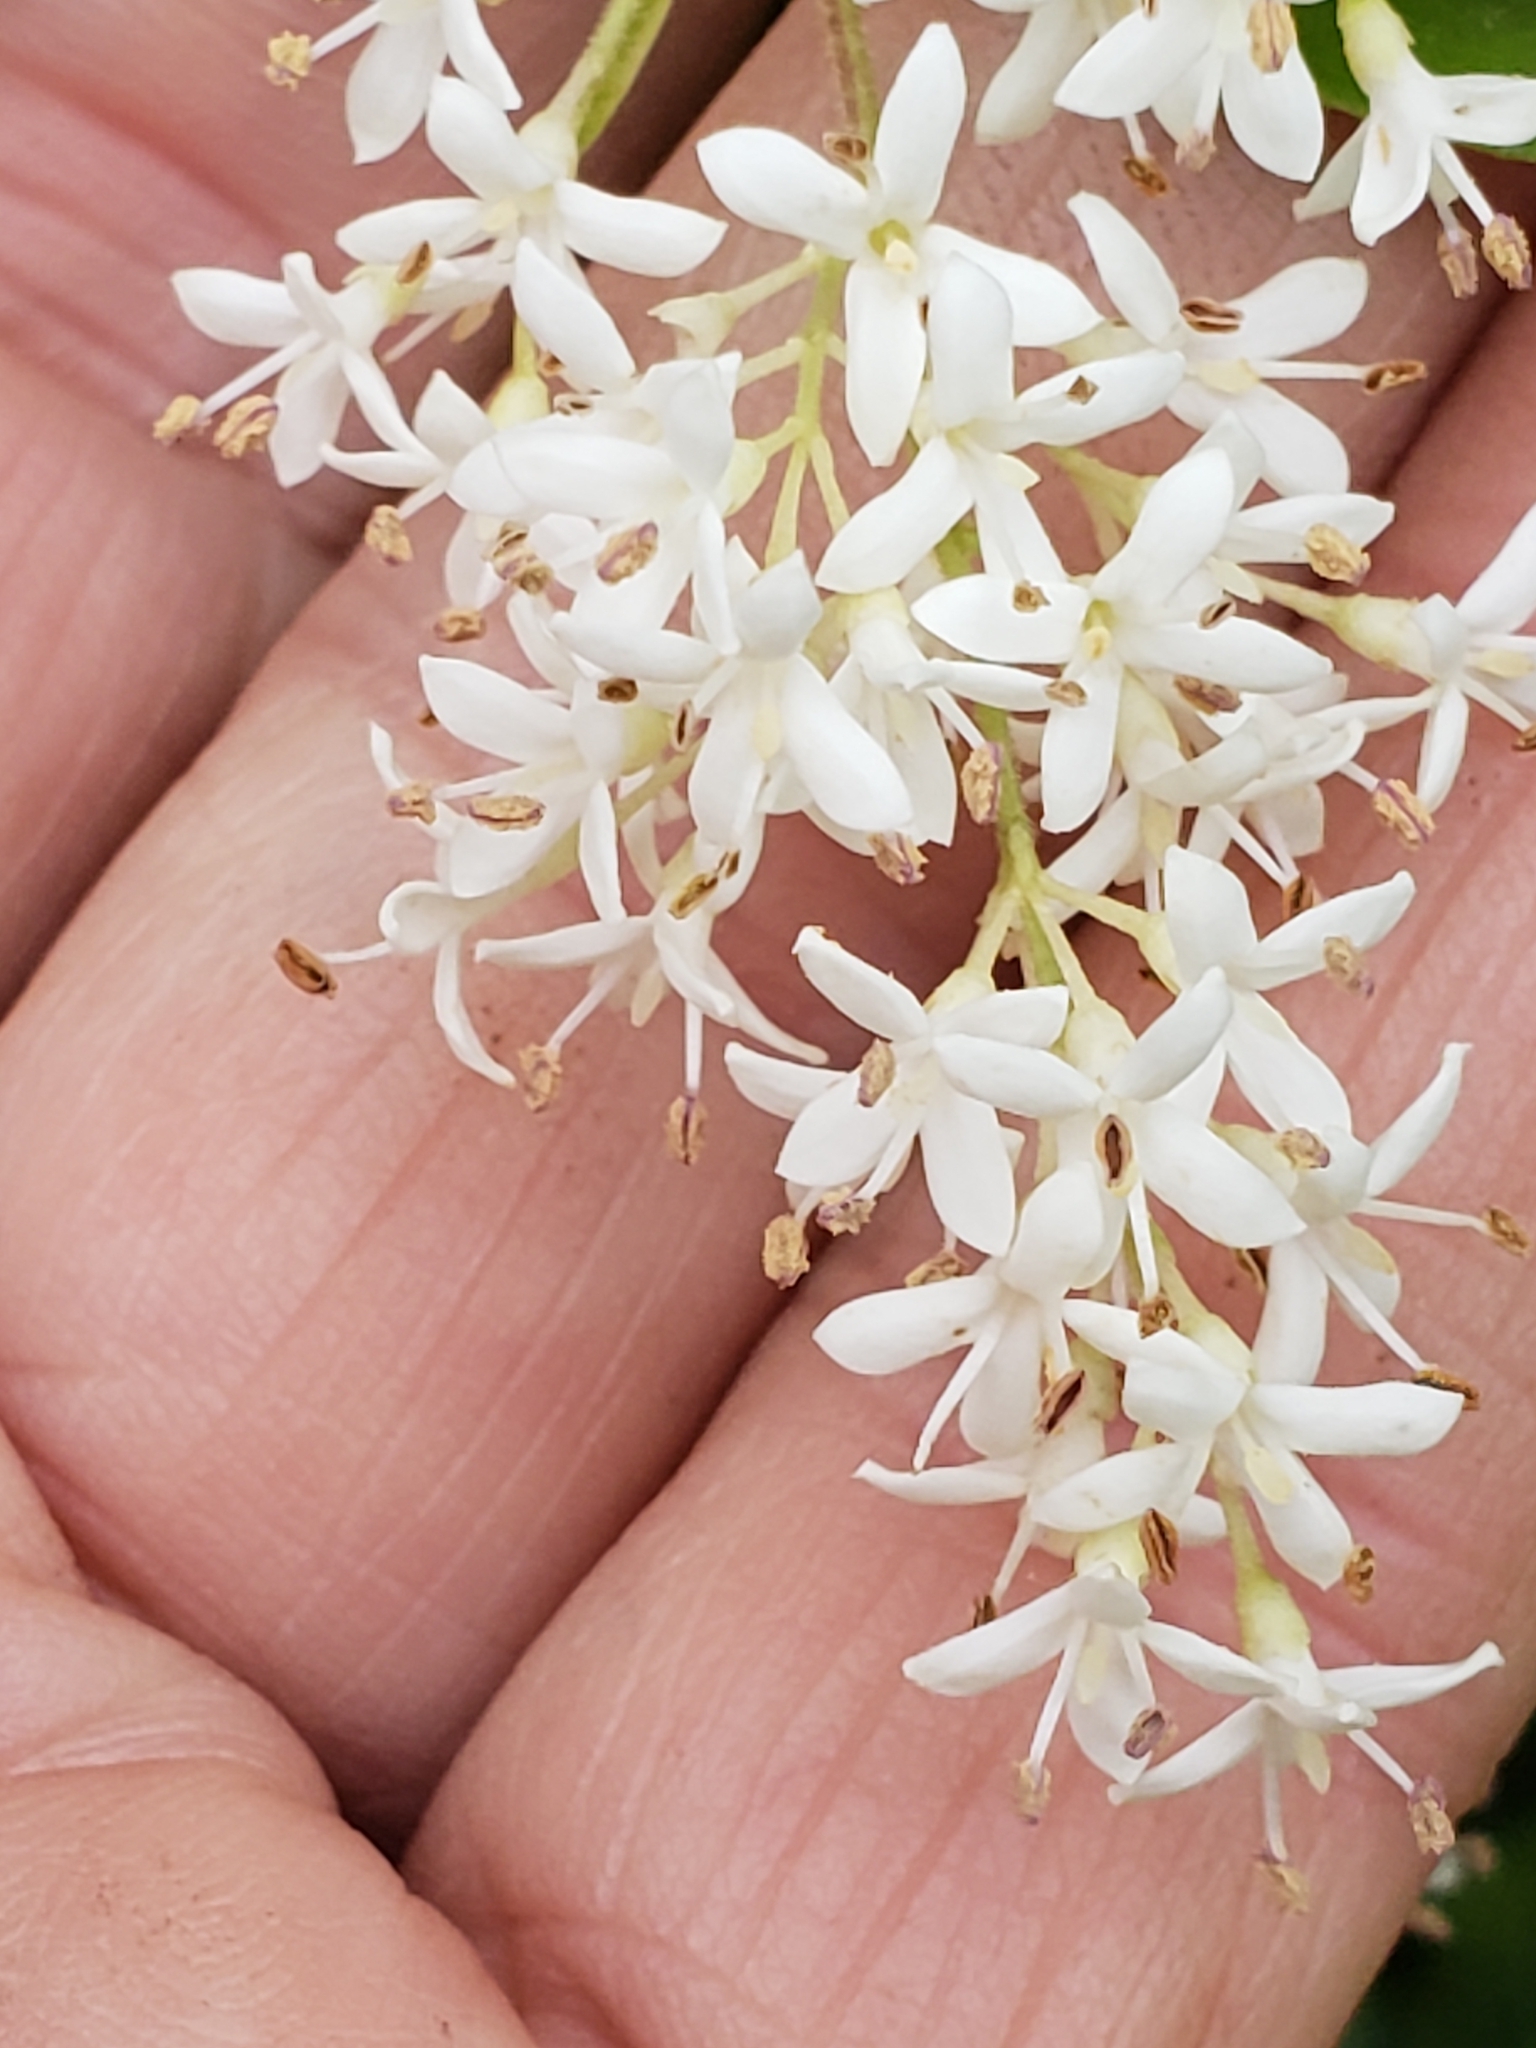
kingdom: Plantae
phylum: Tracheophyta
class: Magnoliopsida
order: Lamiales
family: Oleaceae
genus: Ligustrum
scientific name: Ligustrum sinense
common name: Chinese privet
